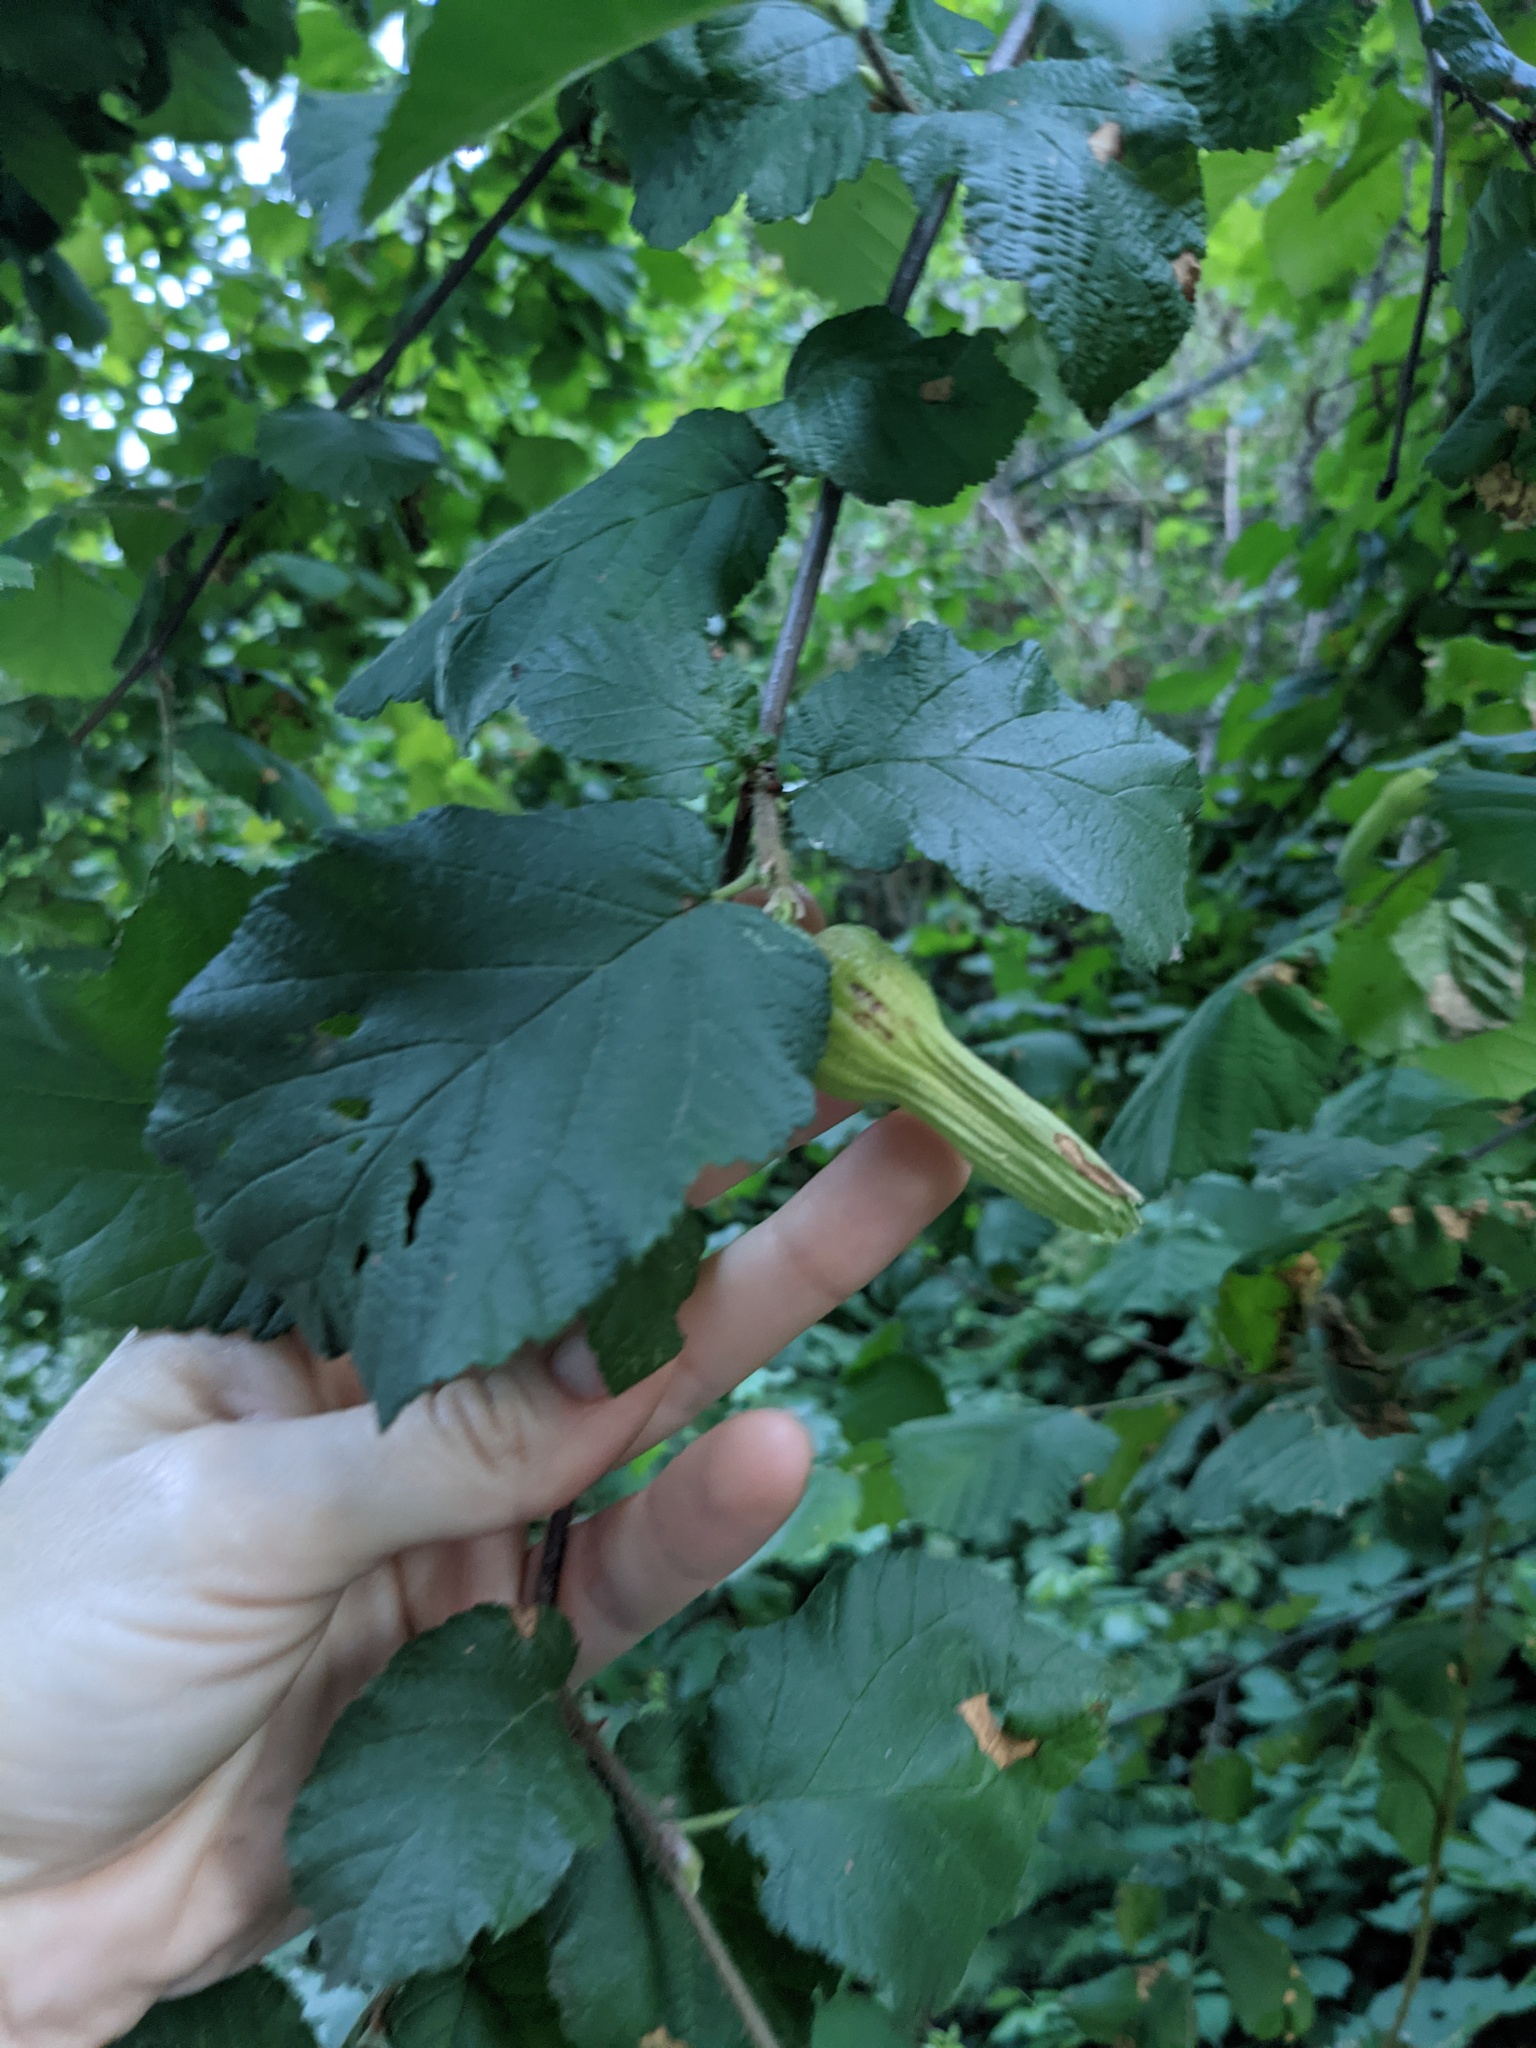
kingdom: Plantae
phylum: Tracheophyta
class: Magnoliopsida
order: Fagales
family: Betulaceae
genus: Corylus
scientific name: Corylus cornuta
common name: Beaked hazel
